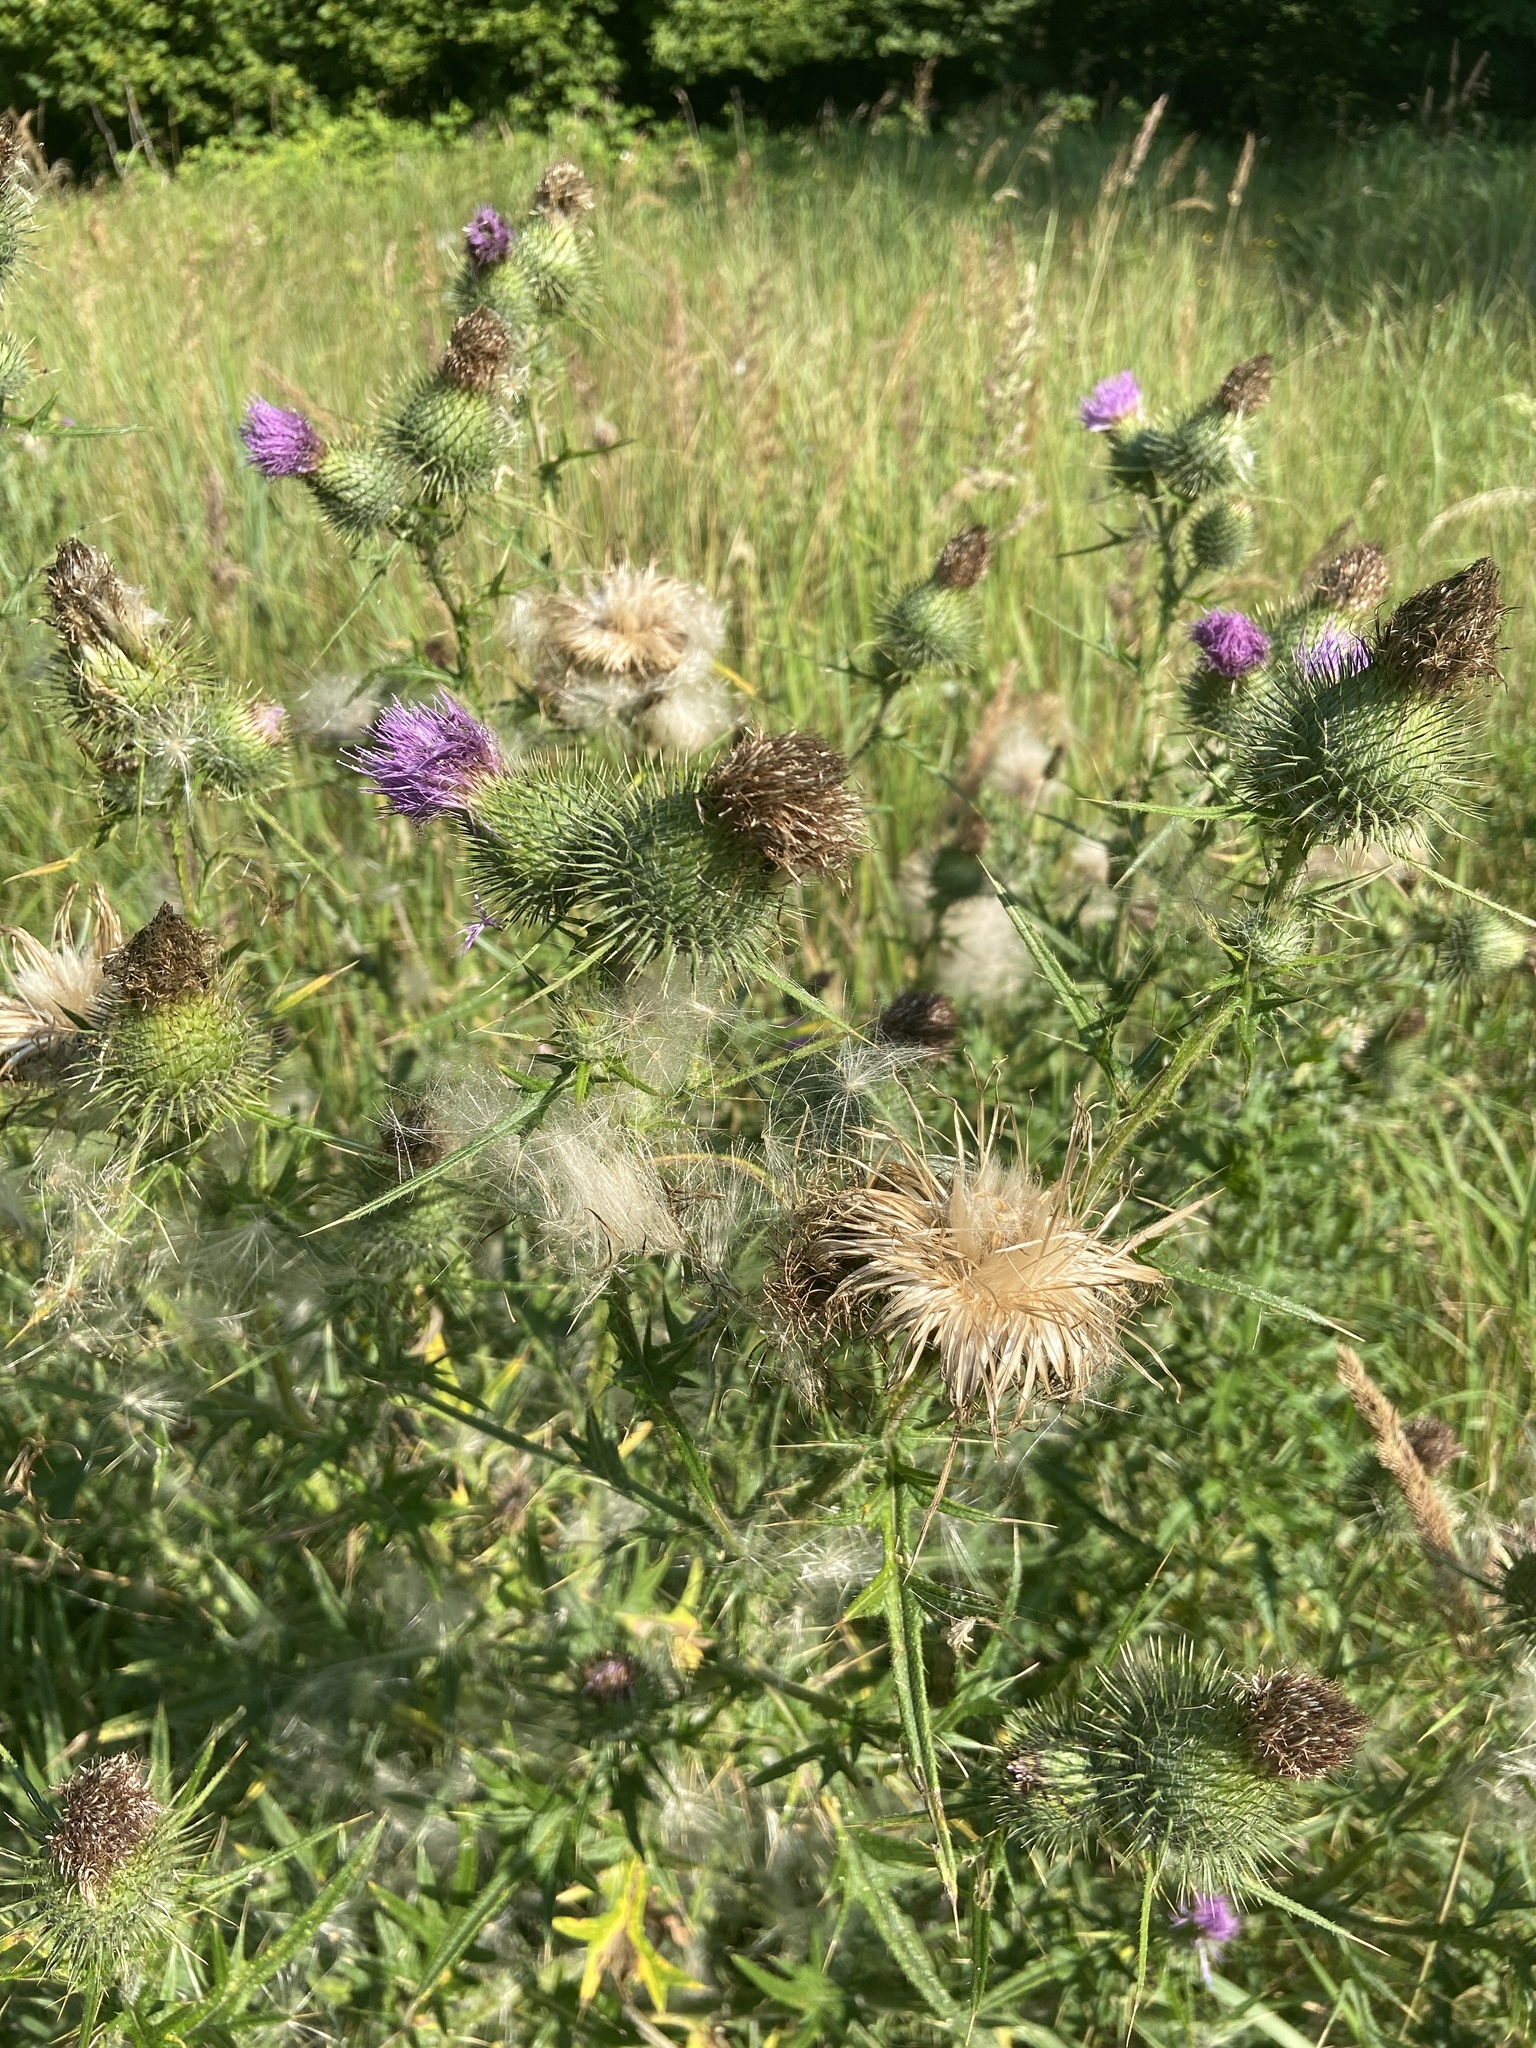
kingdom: Plantae
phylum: Tracheophyta
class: Magnoliopsida
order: Asterales
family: Asteraceae
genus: Cirsium
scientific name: Cirsium vulgare
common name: Bull thistle
